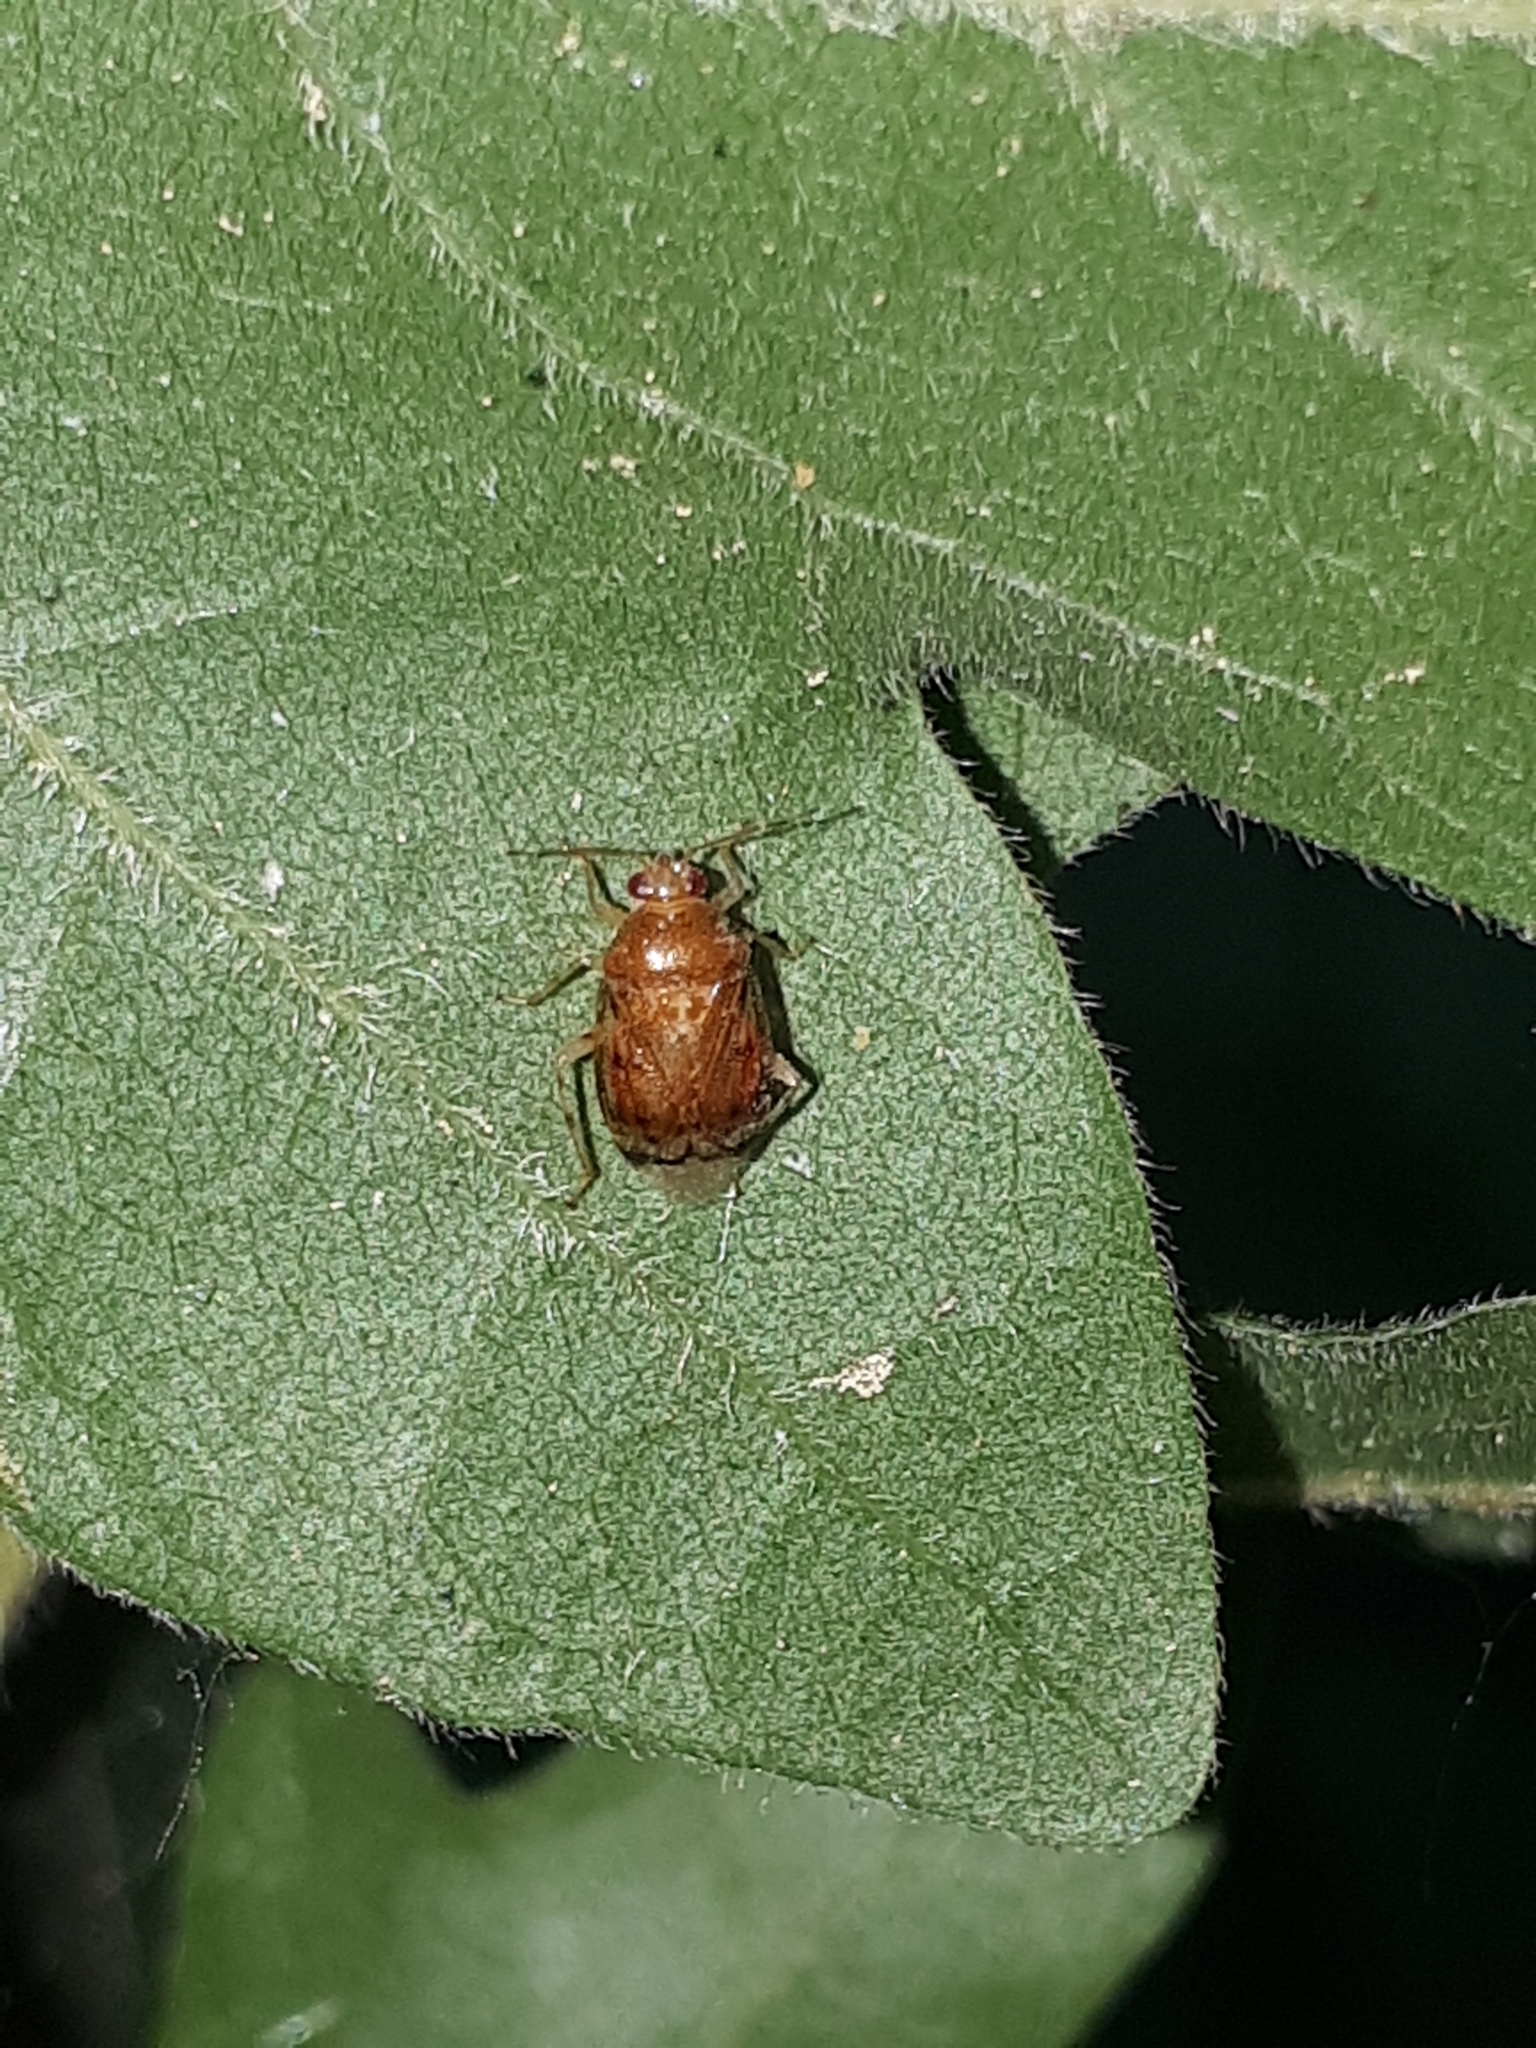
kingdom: Animalia
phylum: Arthropoda
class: Insecta
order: Hemiptera
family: Miridae
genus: Deraeocoris
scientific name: Deraeocoris lutescens
